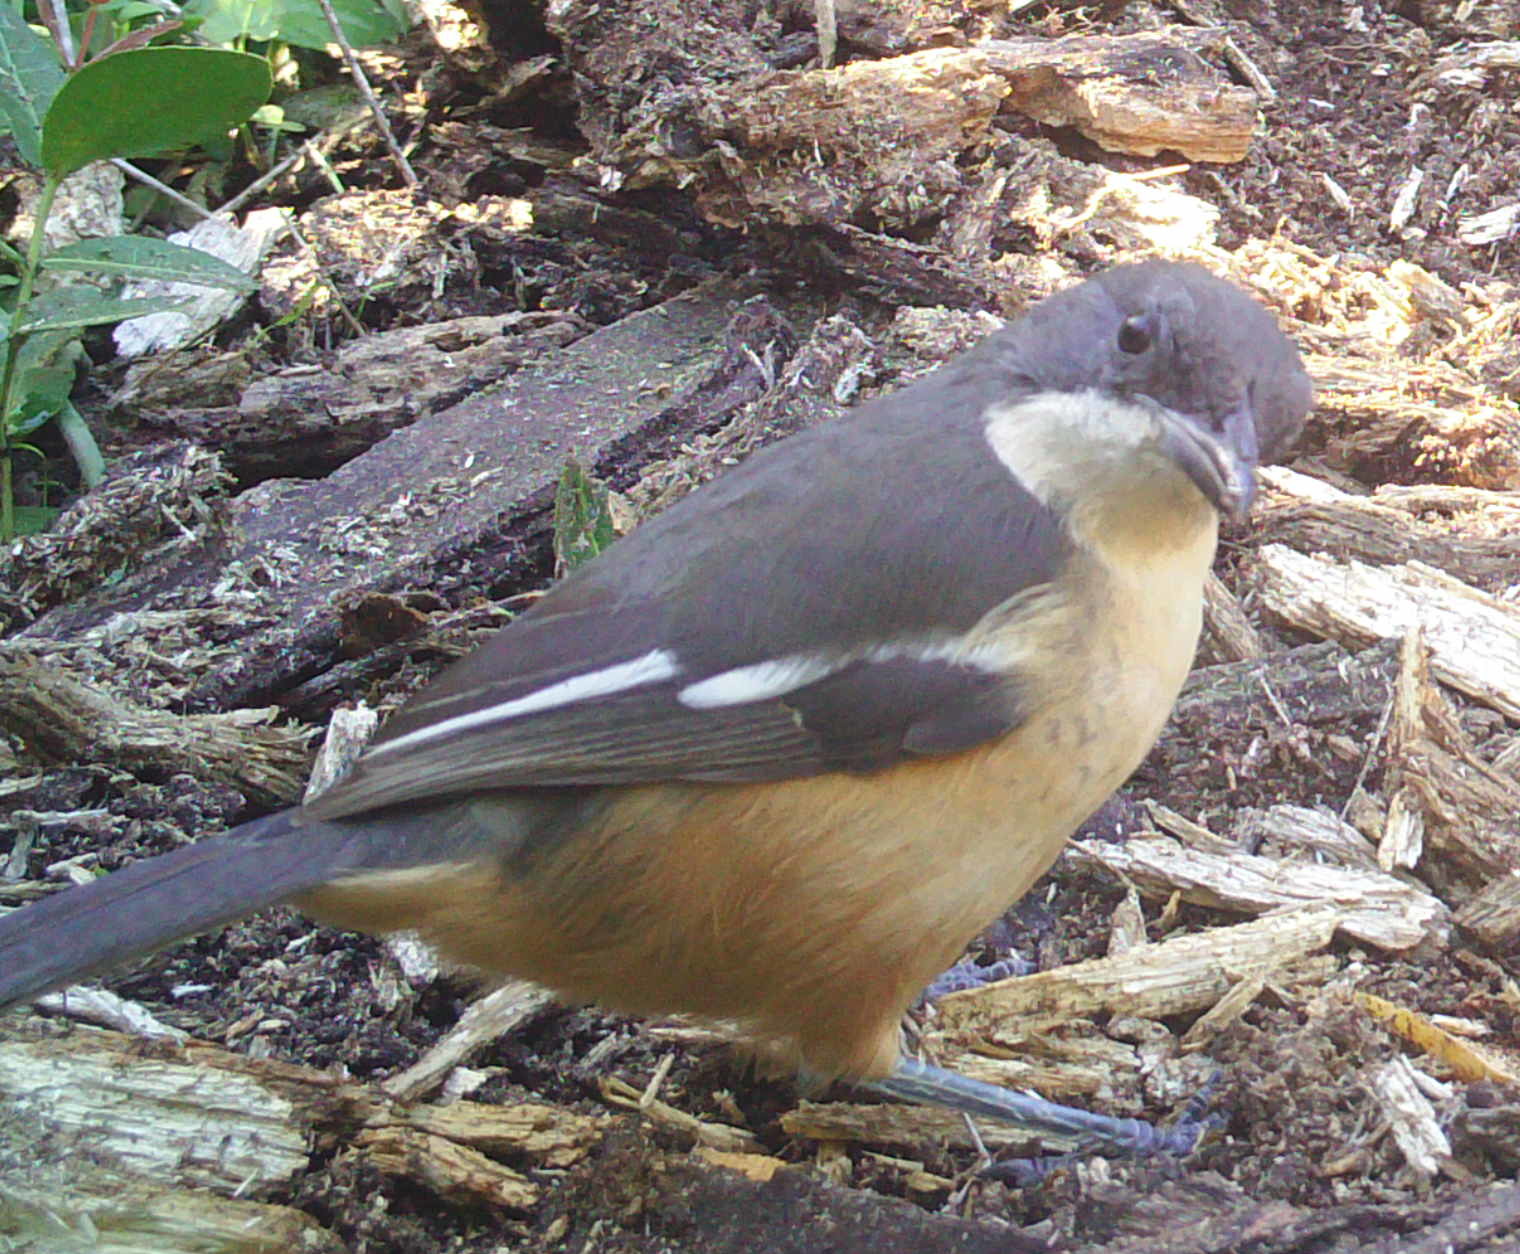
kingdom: Animalia
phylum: Chordata
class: Aves
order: Passeriformes
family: Malaconotidae
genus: Laniarius
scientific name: Laniarius ferrugineus
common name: Southern boubou
